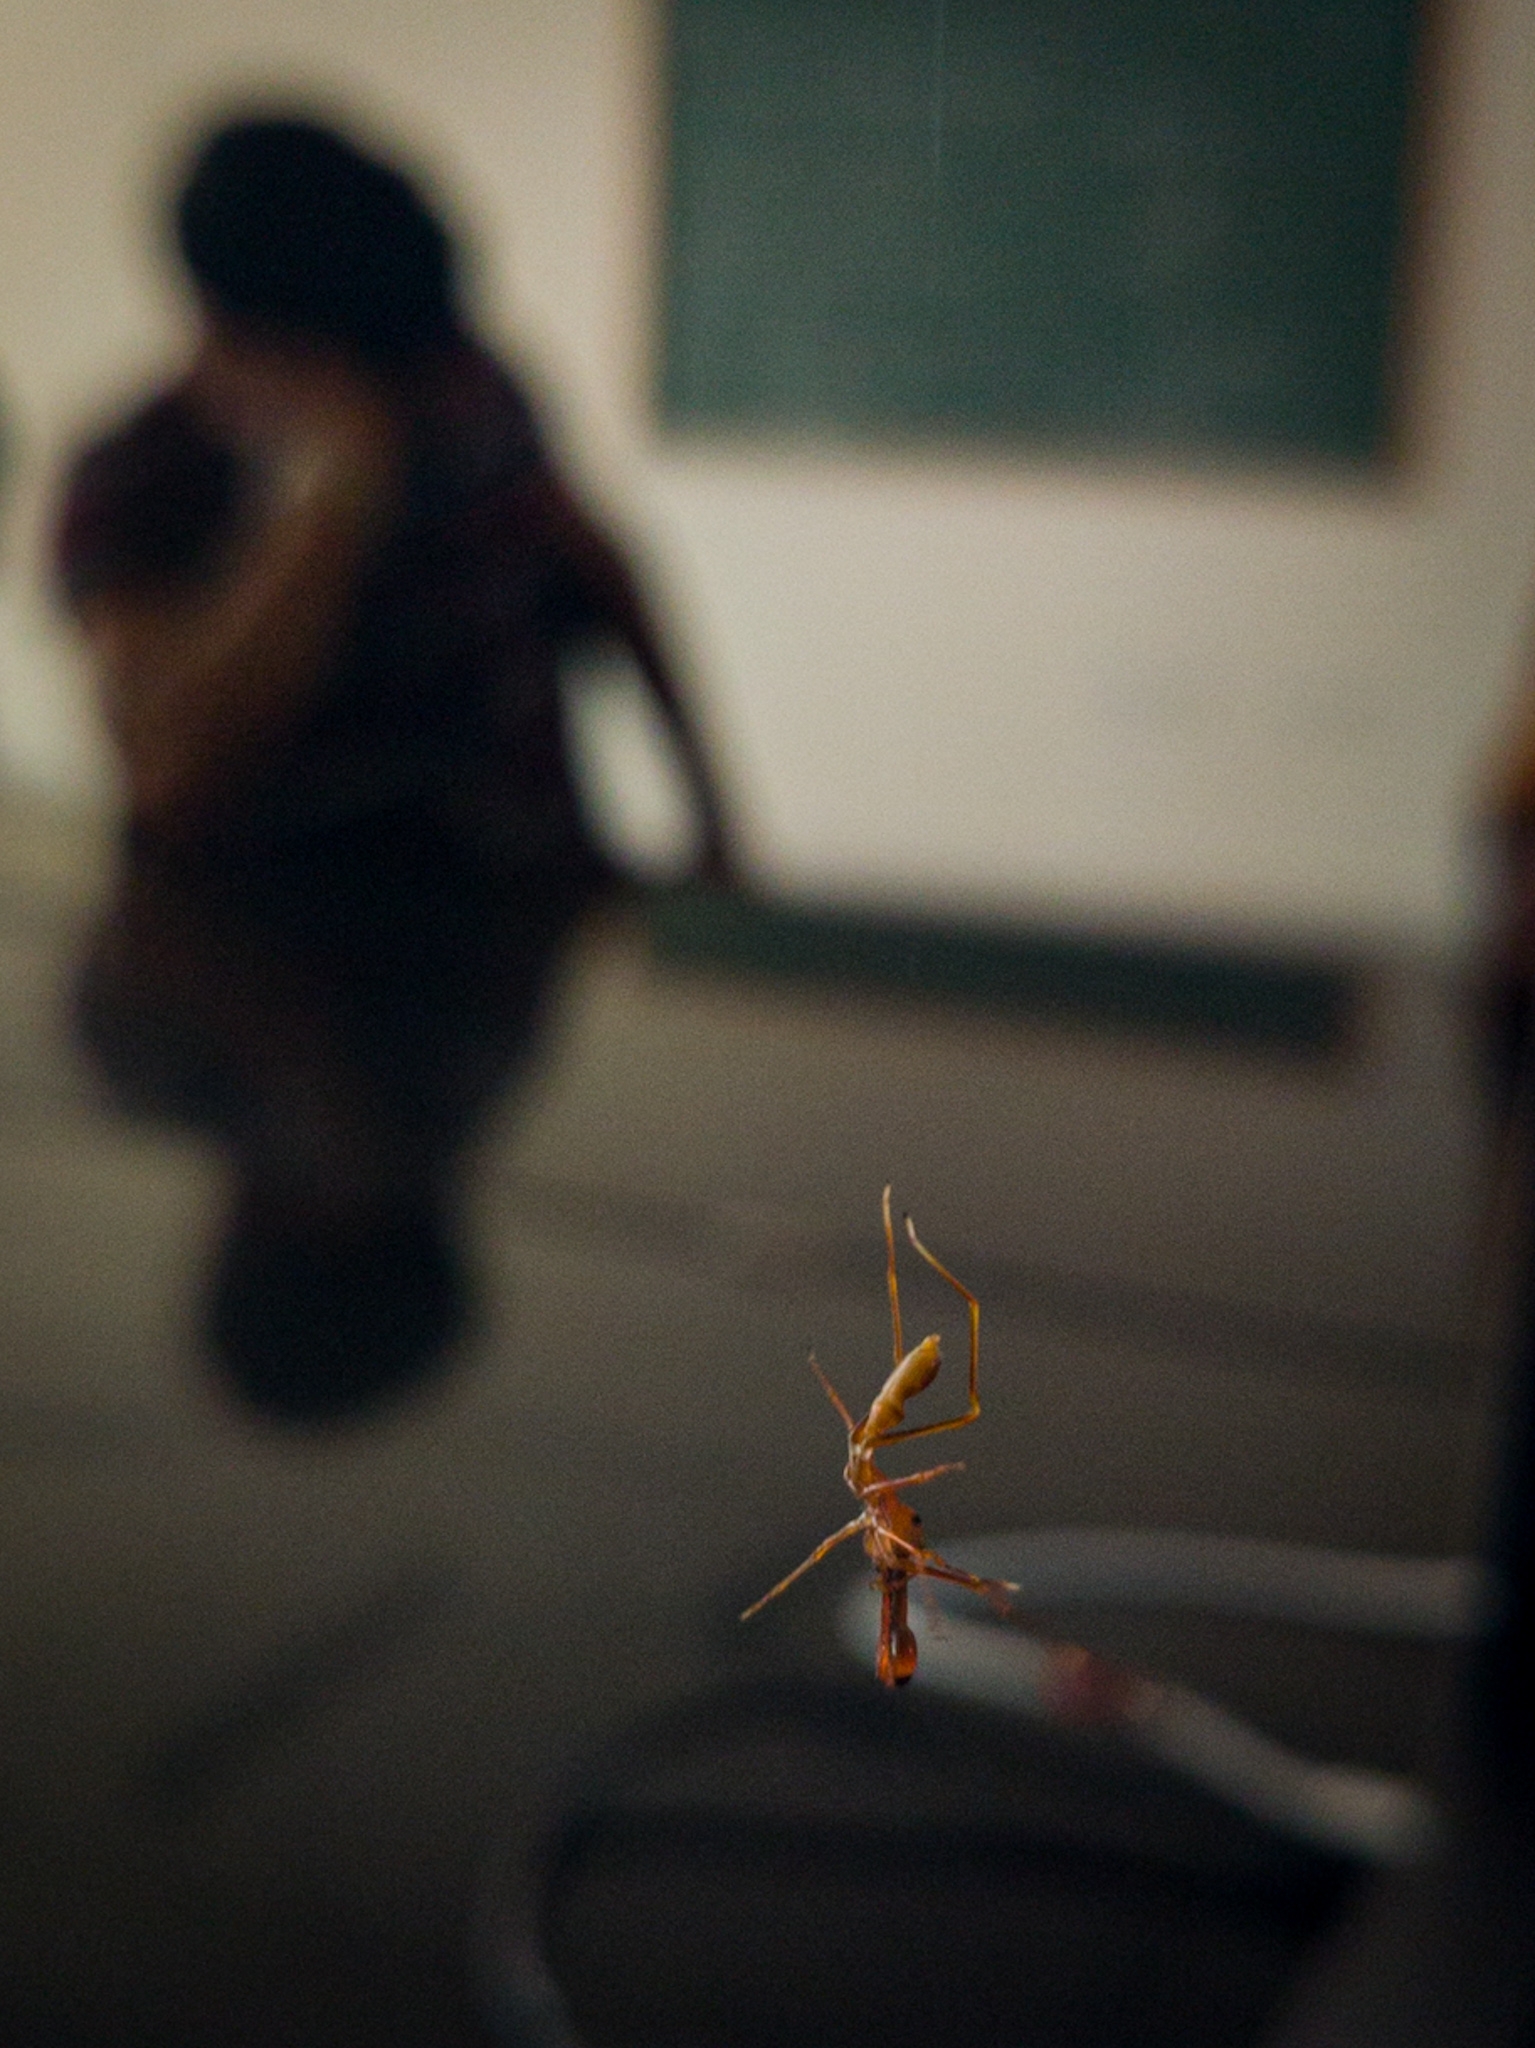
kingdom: Animalia
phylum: Arthropoda
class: Arachnida
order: Araneae
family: Salticidae
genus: Myrmaplata
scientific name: Myrmaplata plataleoides
